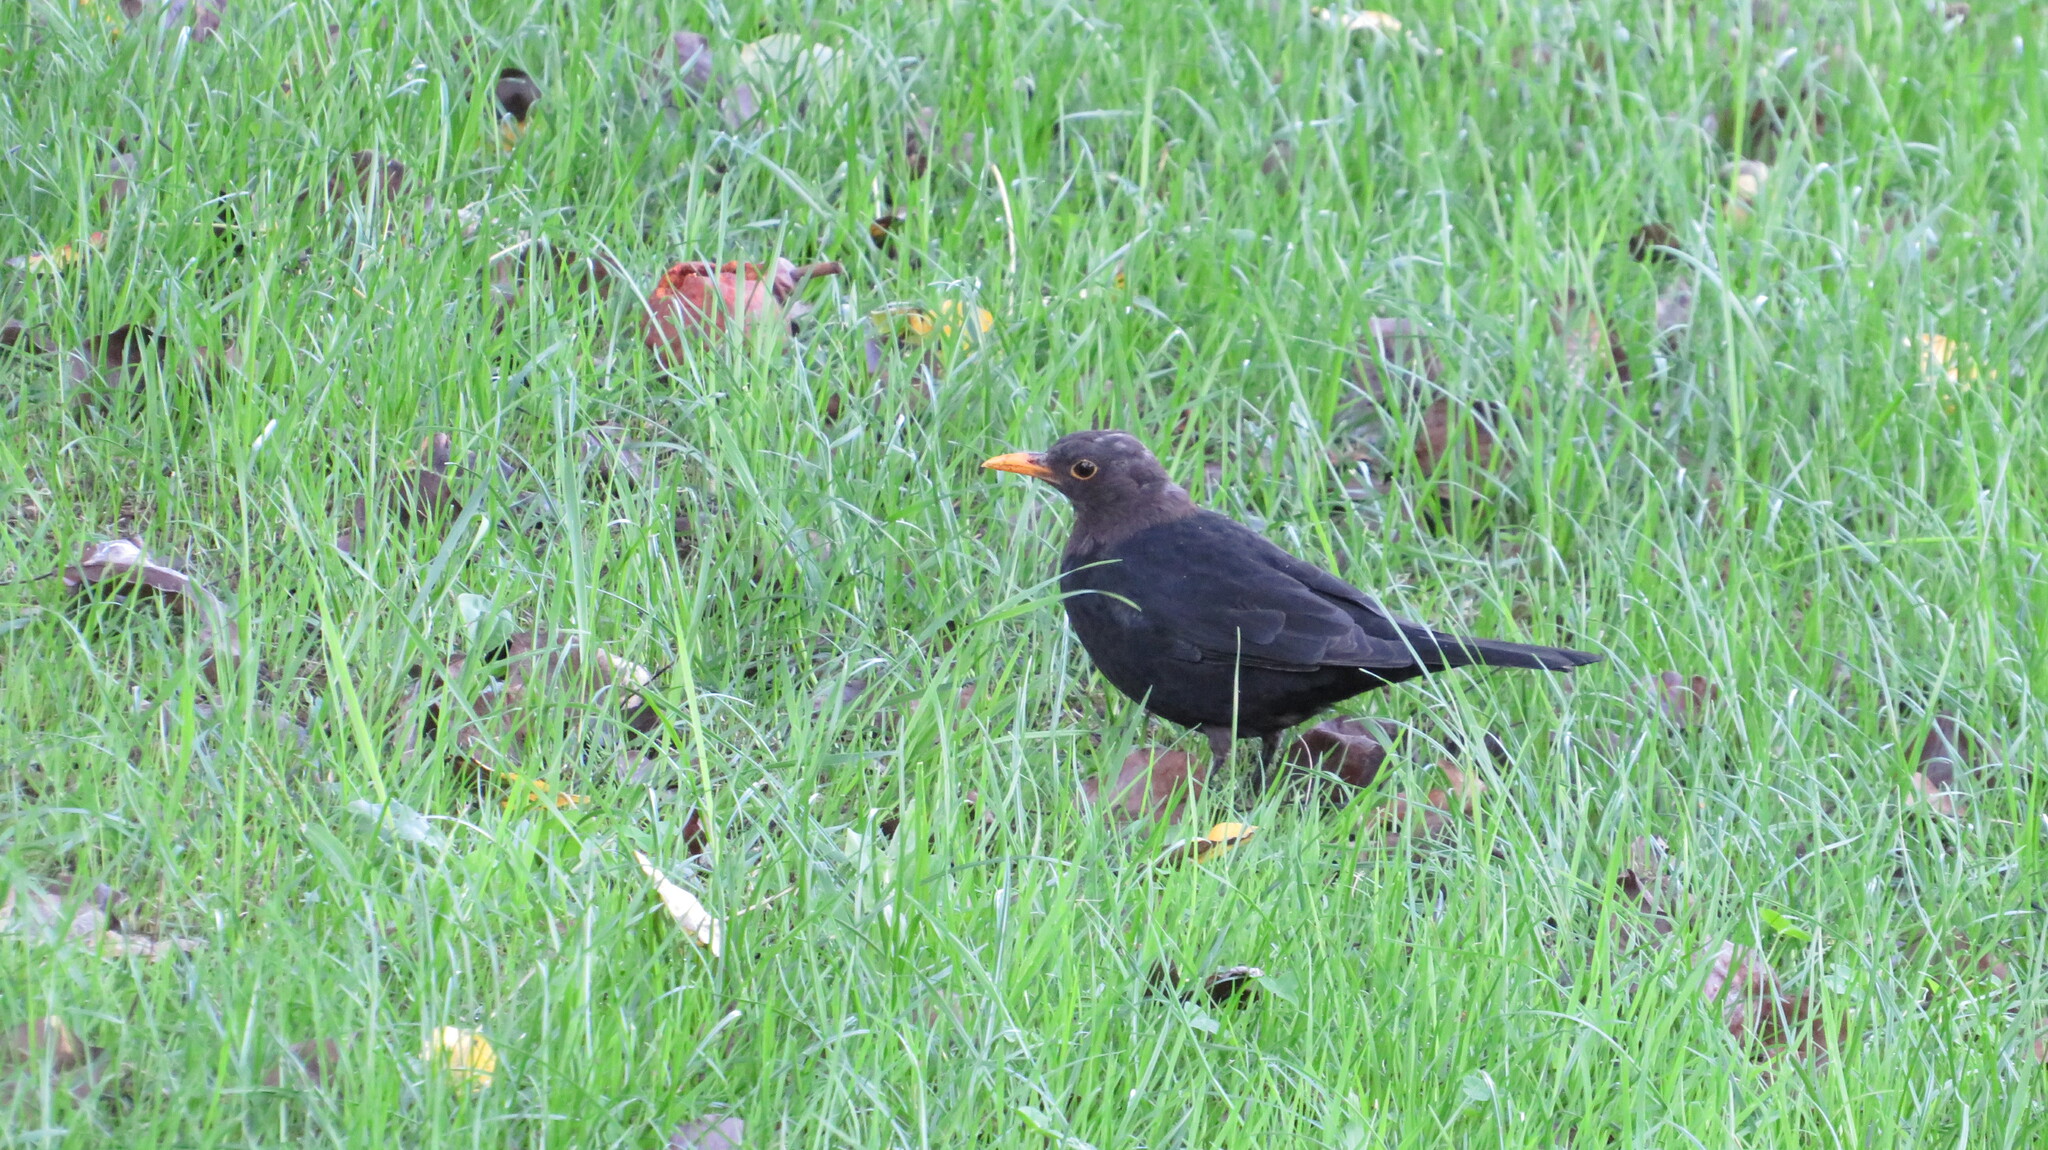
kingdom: Animalia
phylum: Chordata
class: Aves
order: Passeriformes
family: Turdidae
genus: Turdus
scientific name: Turdus merula
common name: Common blackbird
